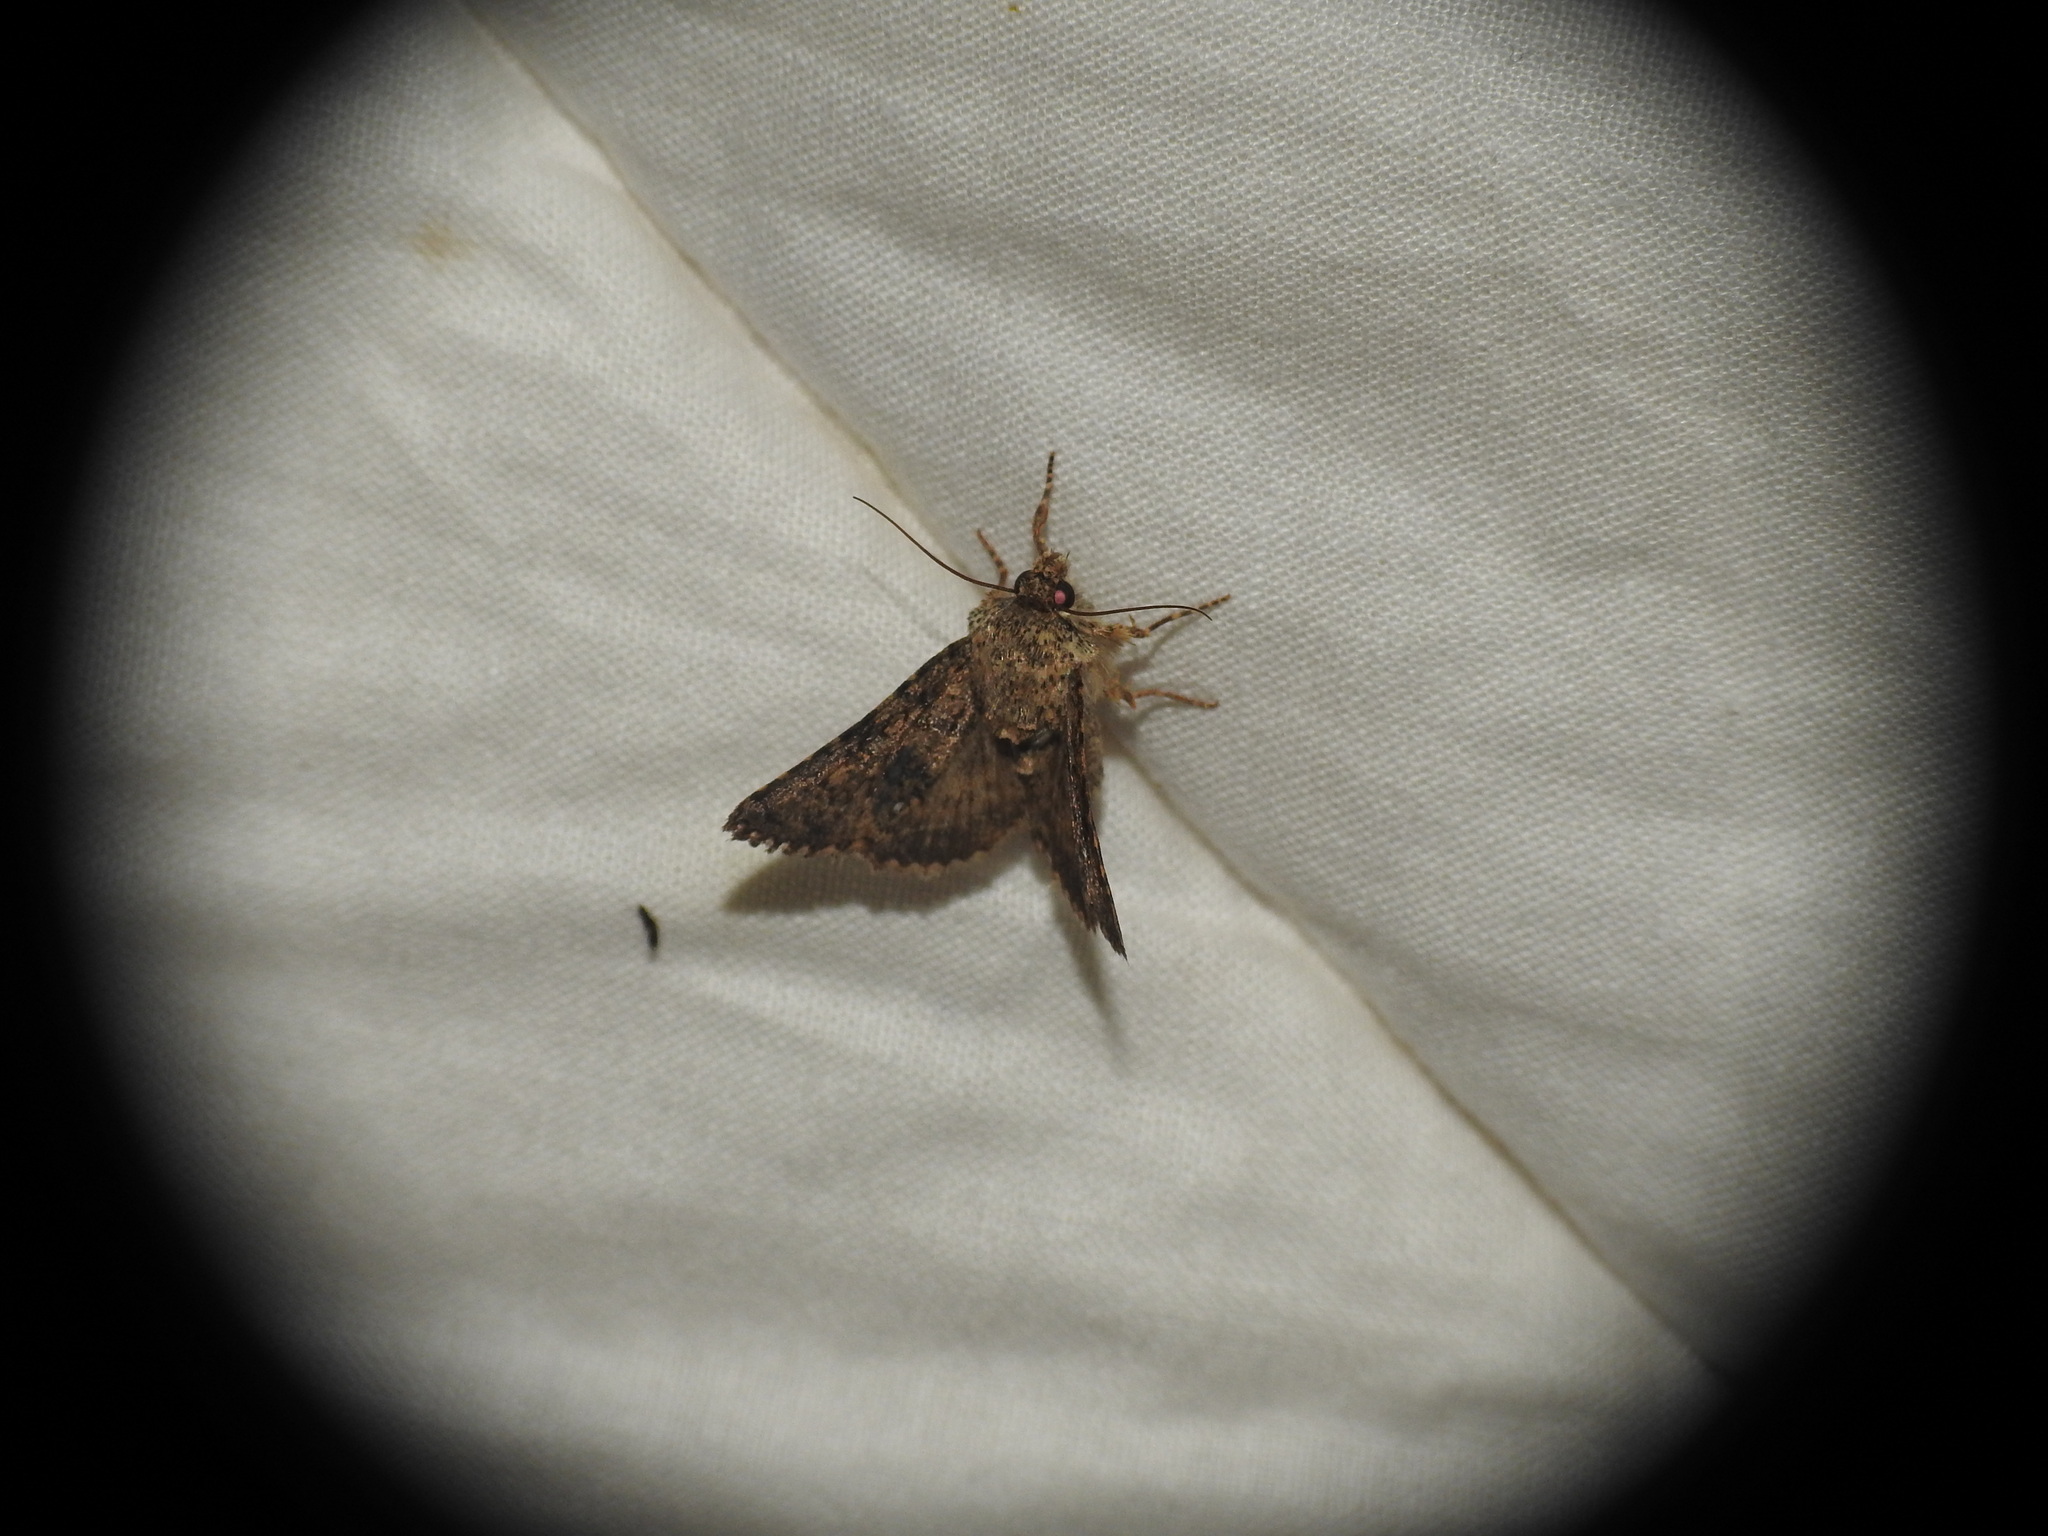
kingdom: Animalia
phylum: Arthropoda
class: Insecta
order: Lepidoptera
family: Noctuidae
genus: Recoropha
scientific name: Recoropha canteneri
